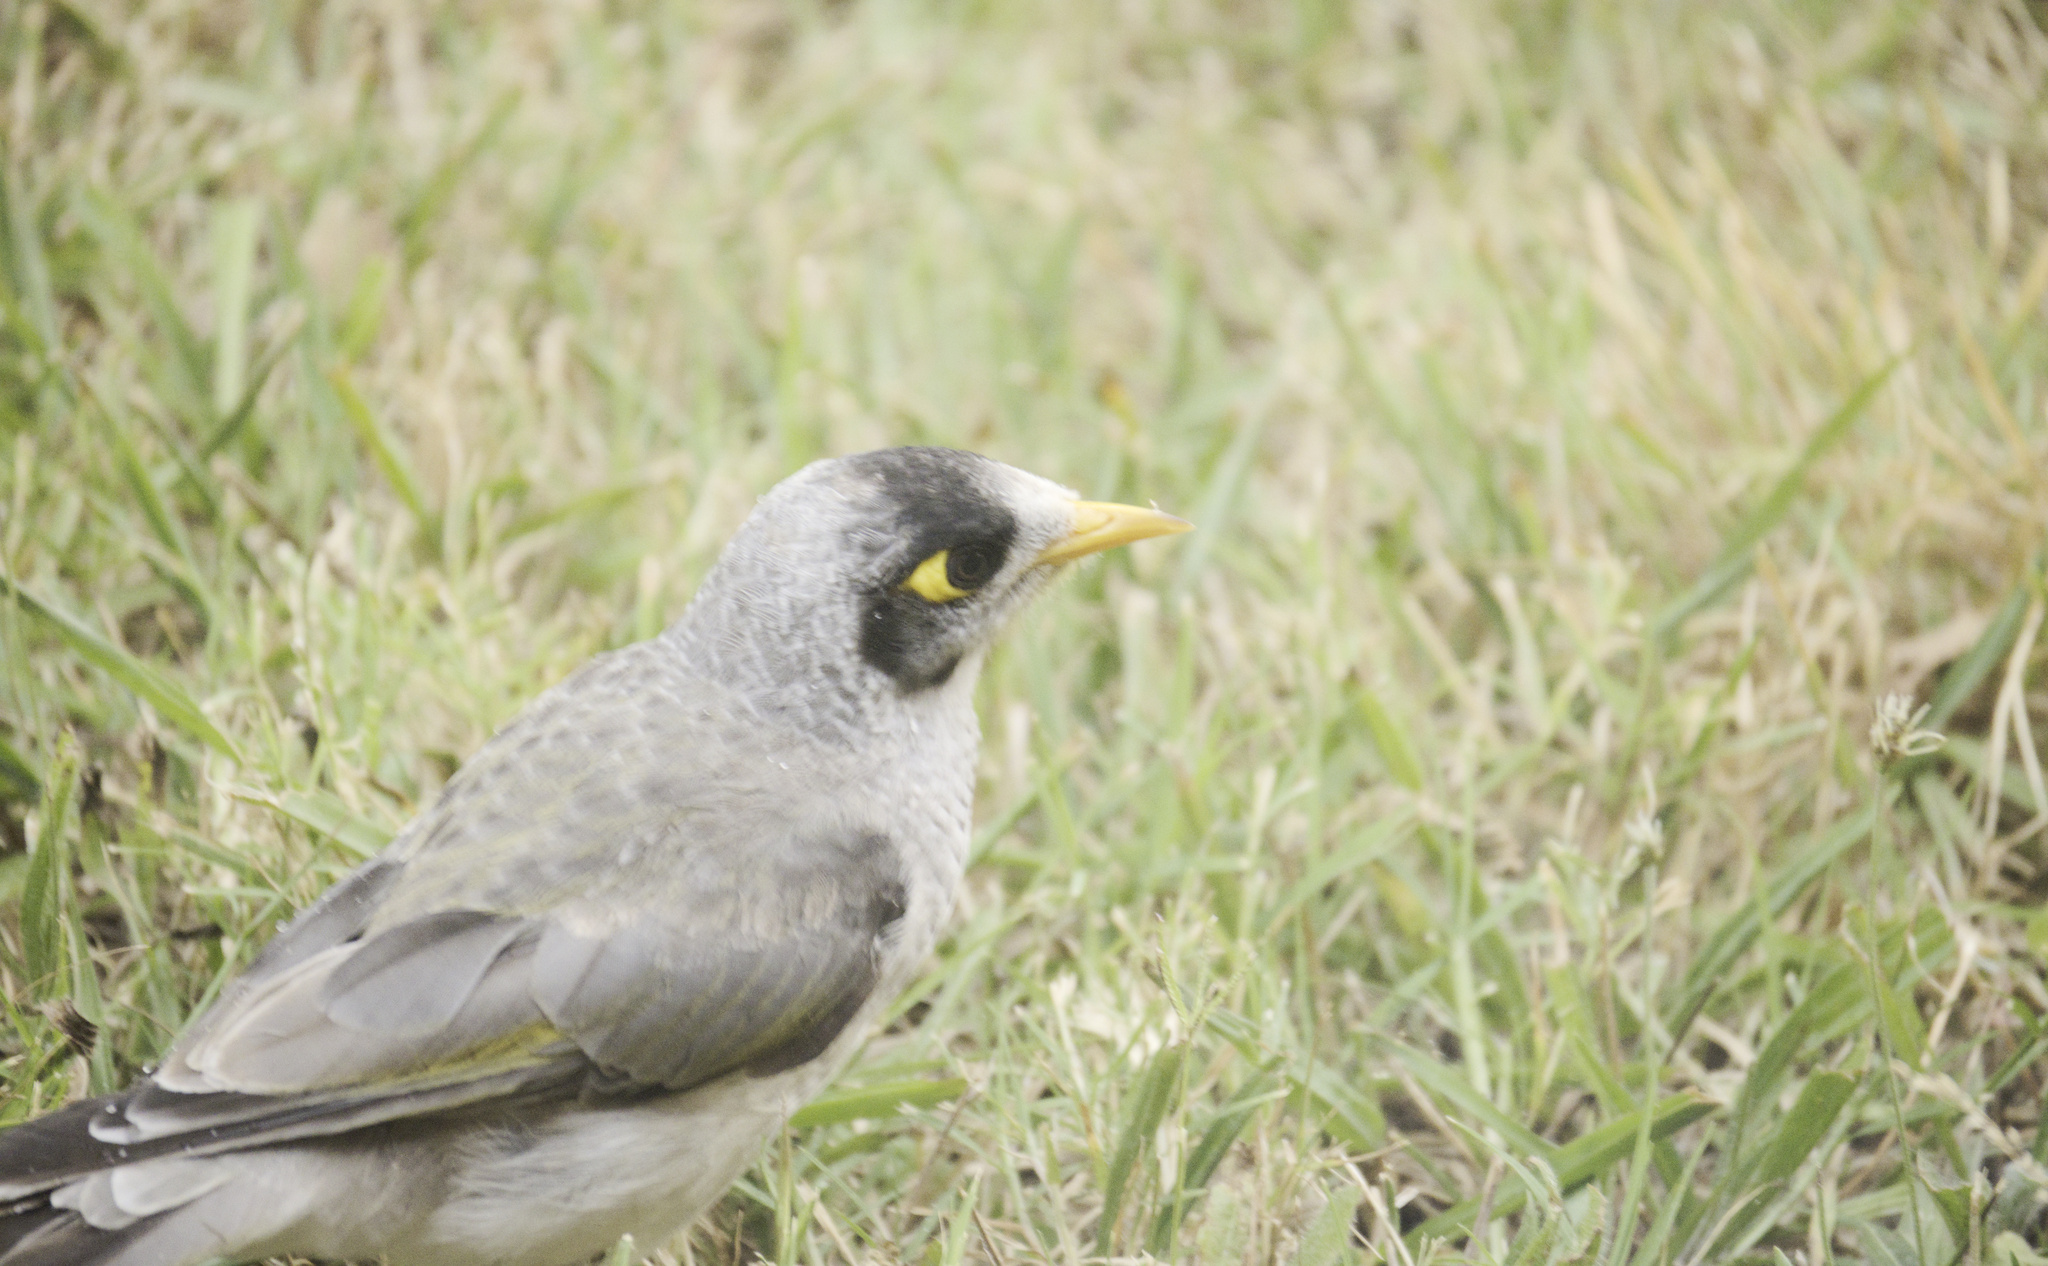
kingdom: Animalia
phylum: Chordata
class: Aves
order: Passeriformes
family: Meliphagidae
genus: Manorina
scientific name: Manorina melanocephala
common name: Noisy miner
